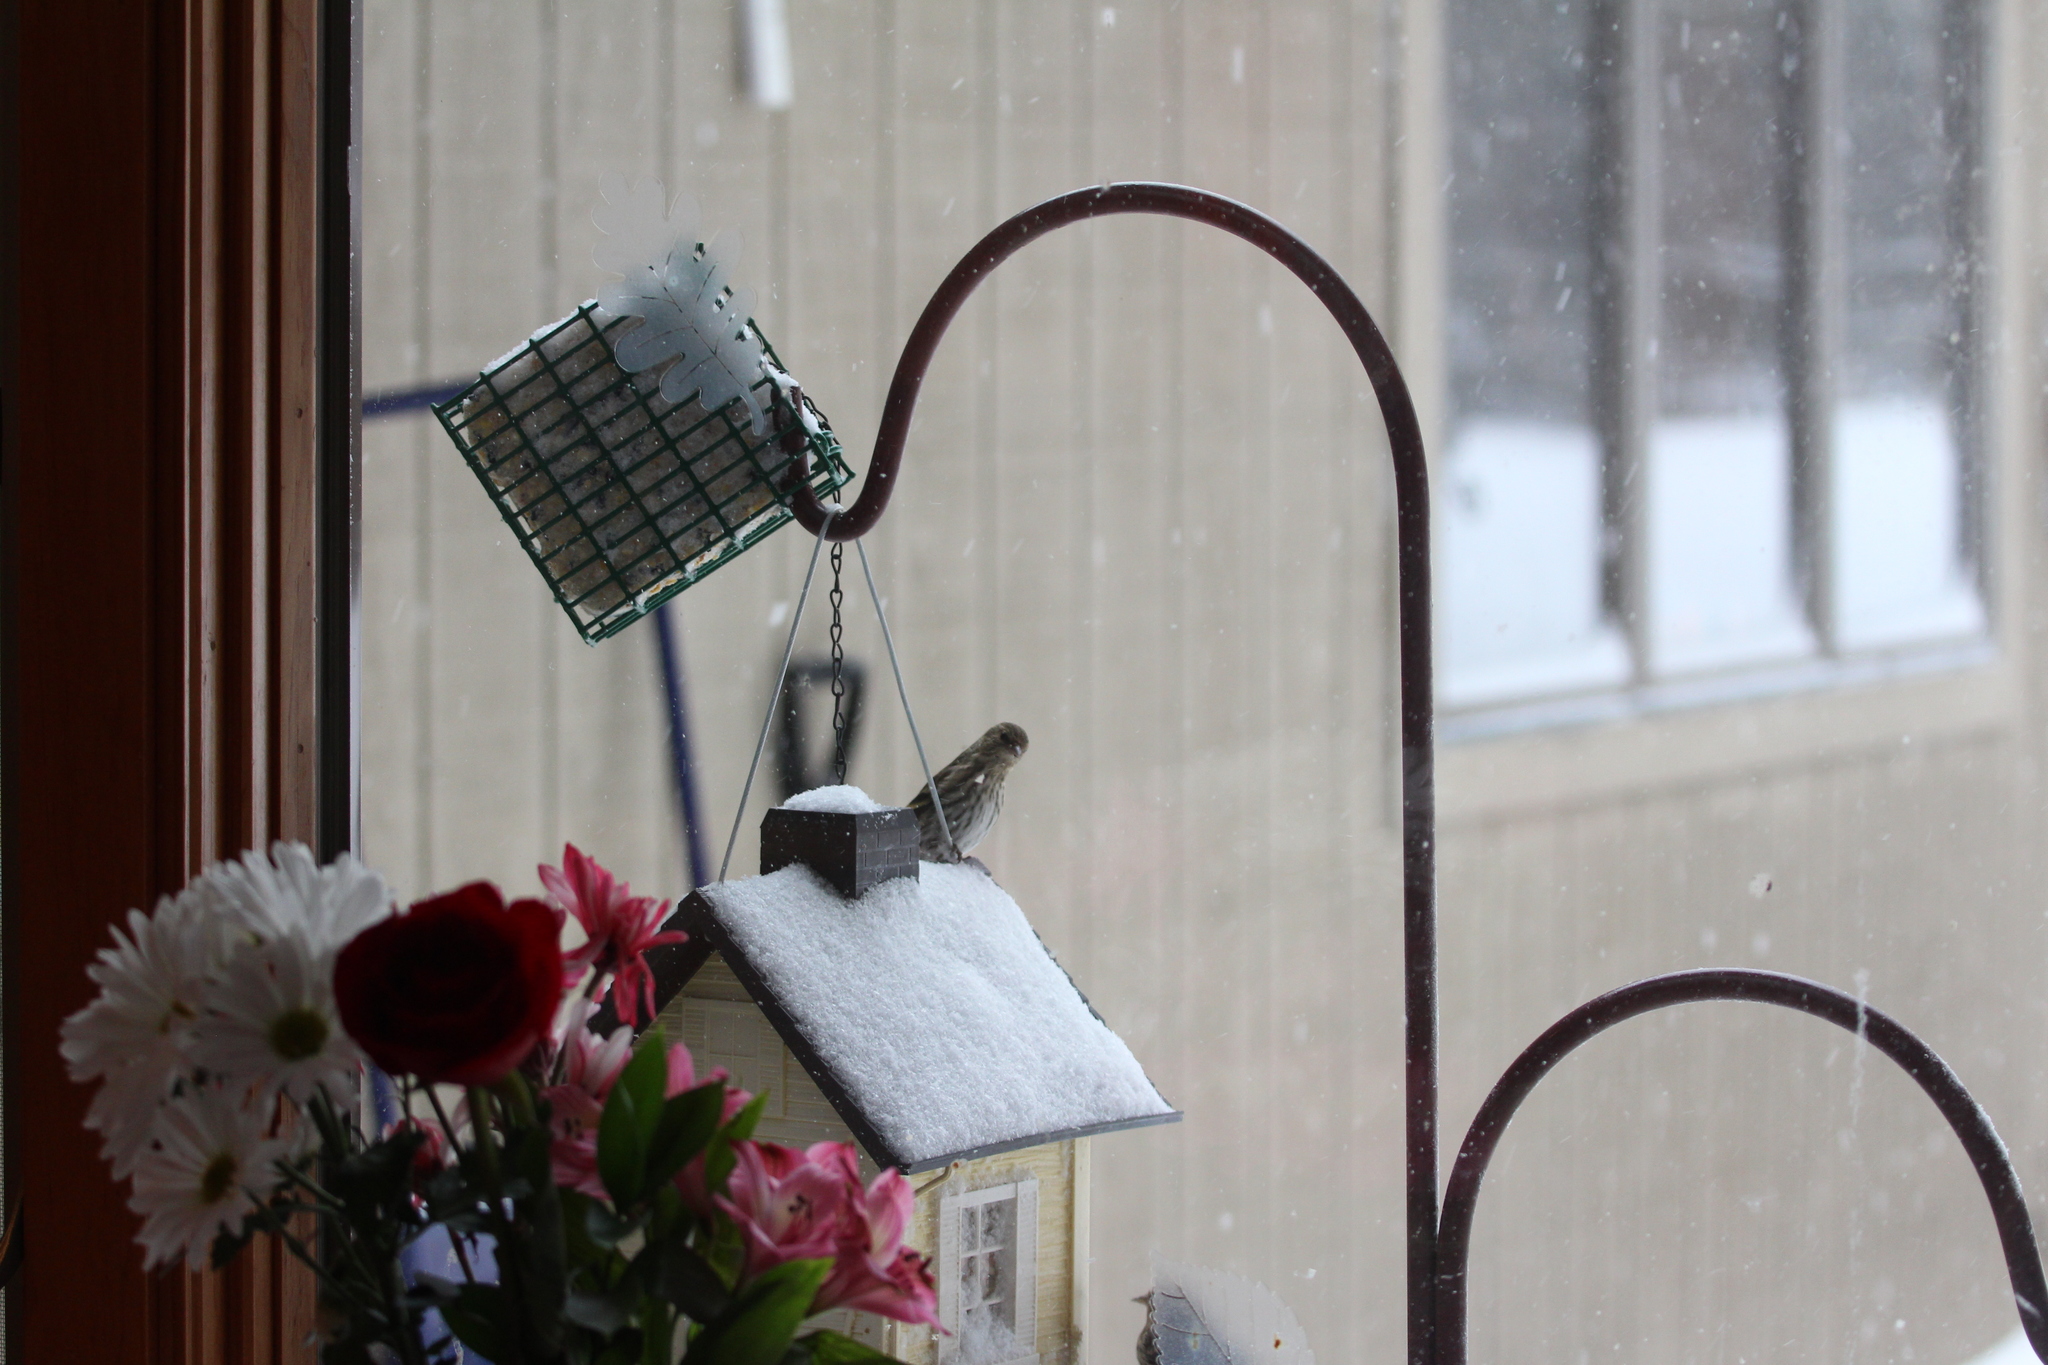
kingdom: Animalia
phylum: Chordata
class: Aves
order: Passeriformes
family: Fringillidae
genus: Spinus
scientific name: Spinus pinus
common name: Pine siskin
